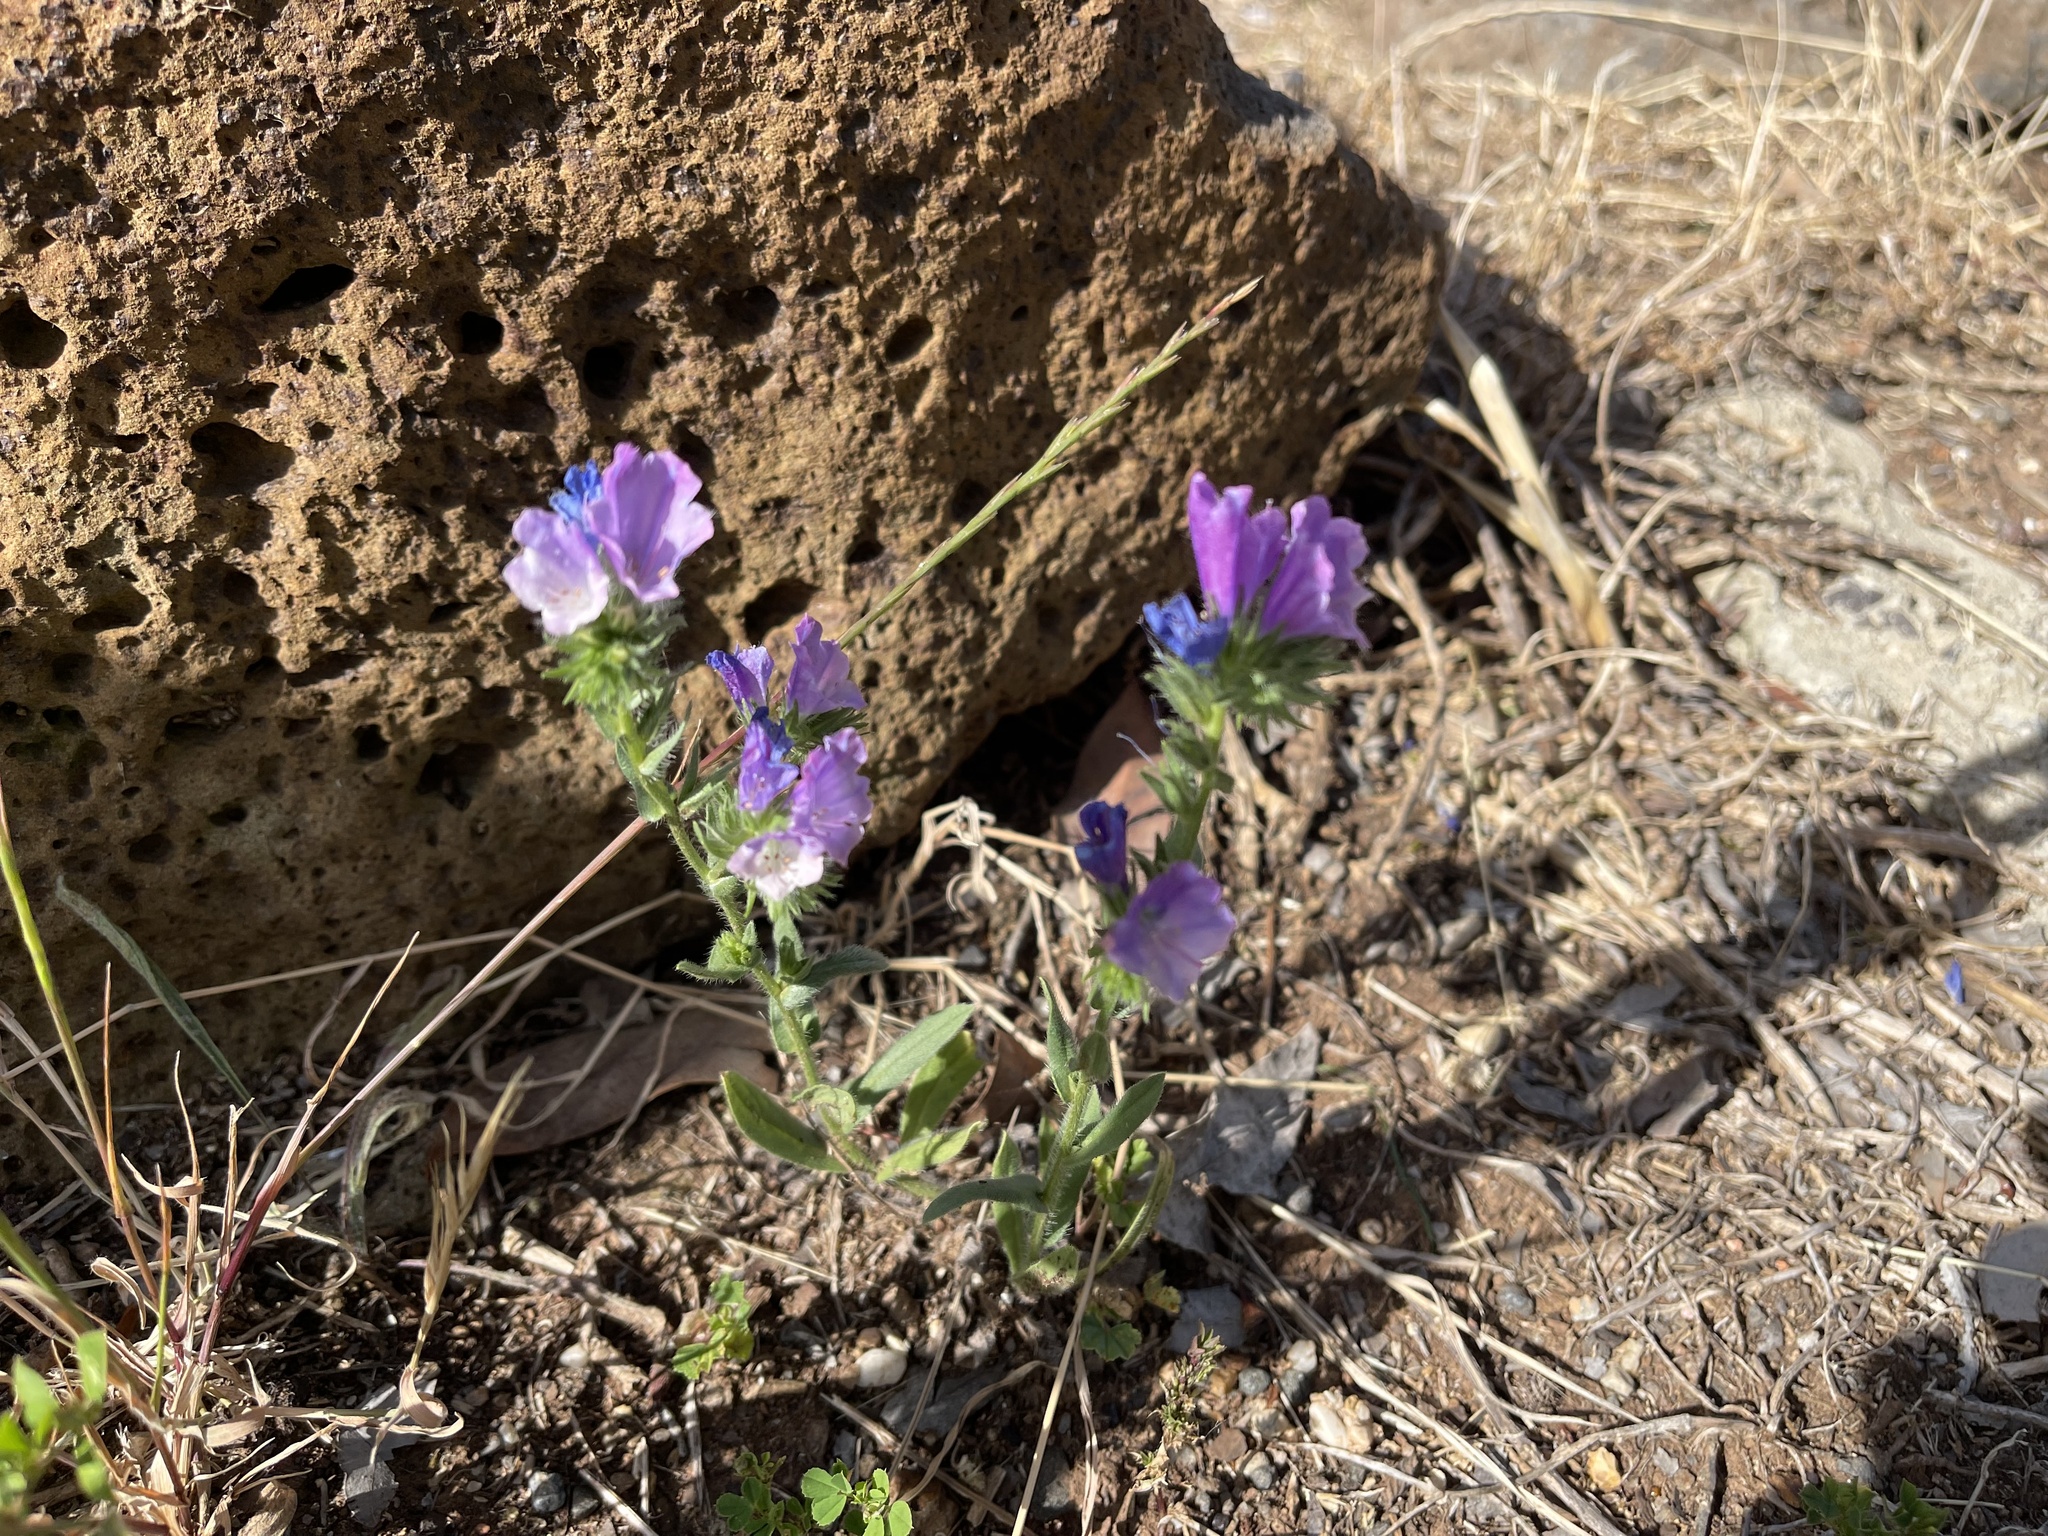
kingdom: Plantae
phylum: Tracheophyta
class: Magnoliopsida
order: Boraginales
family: Boraginaceae
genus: Echium
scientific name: Echium plantagineum
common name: Purple viper's-bugloss
